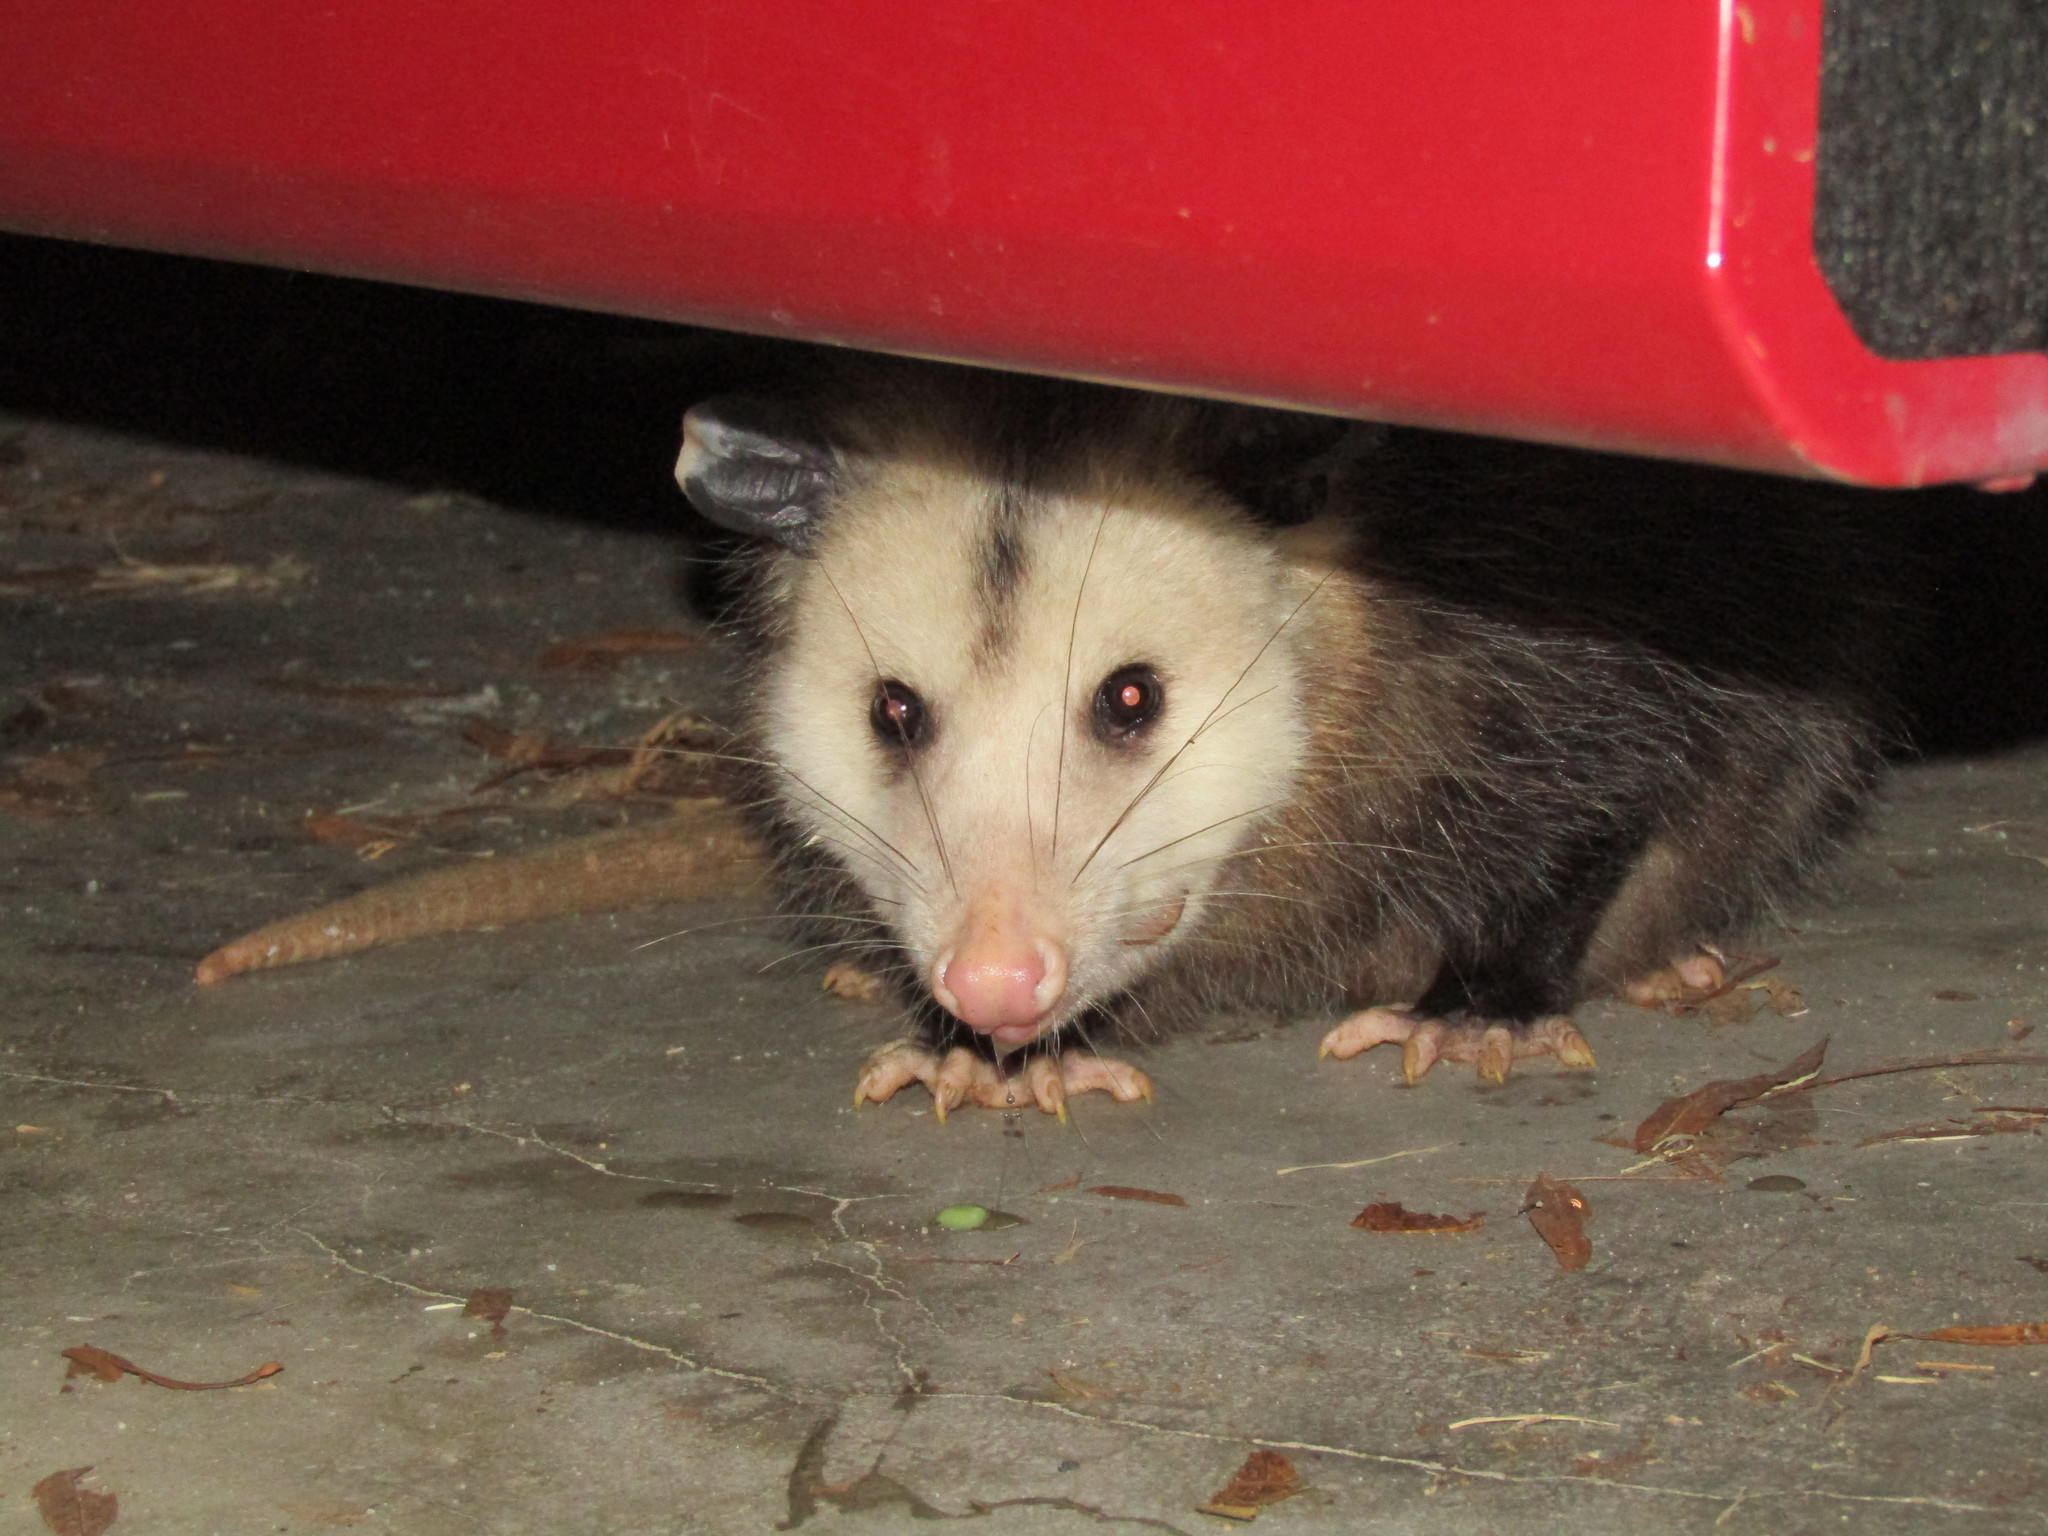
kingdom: Animalia
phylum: Chordata
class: Mammalia
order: Didelphimorphia
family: Didelphidae
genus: Didelphis
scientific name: Didelphis virginiana
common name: Virginia opossum
